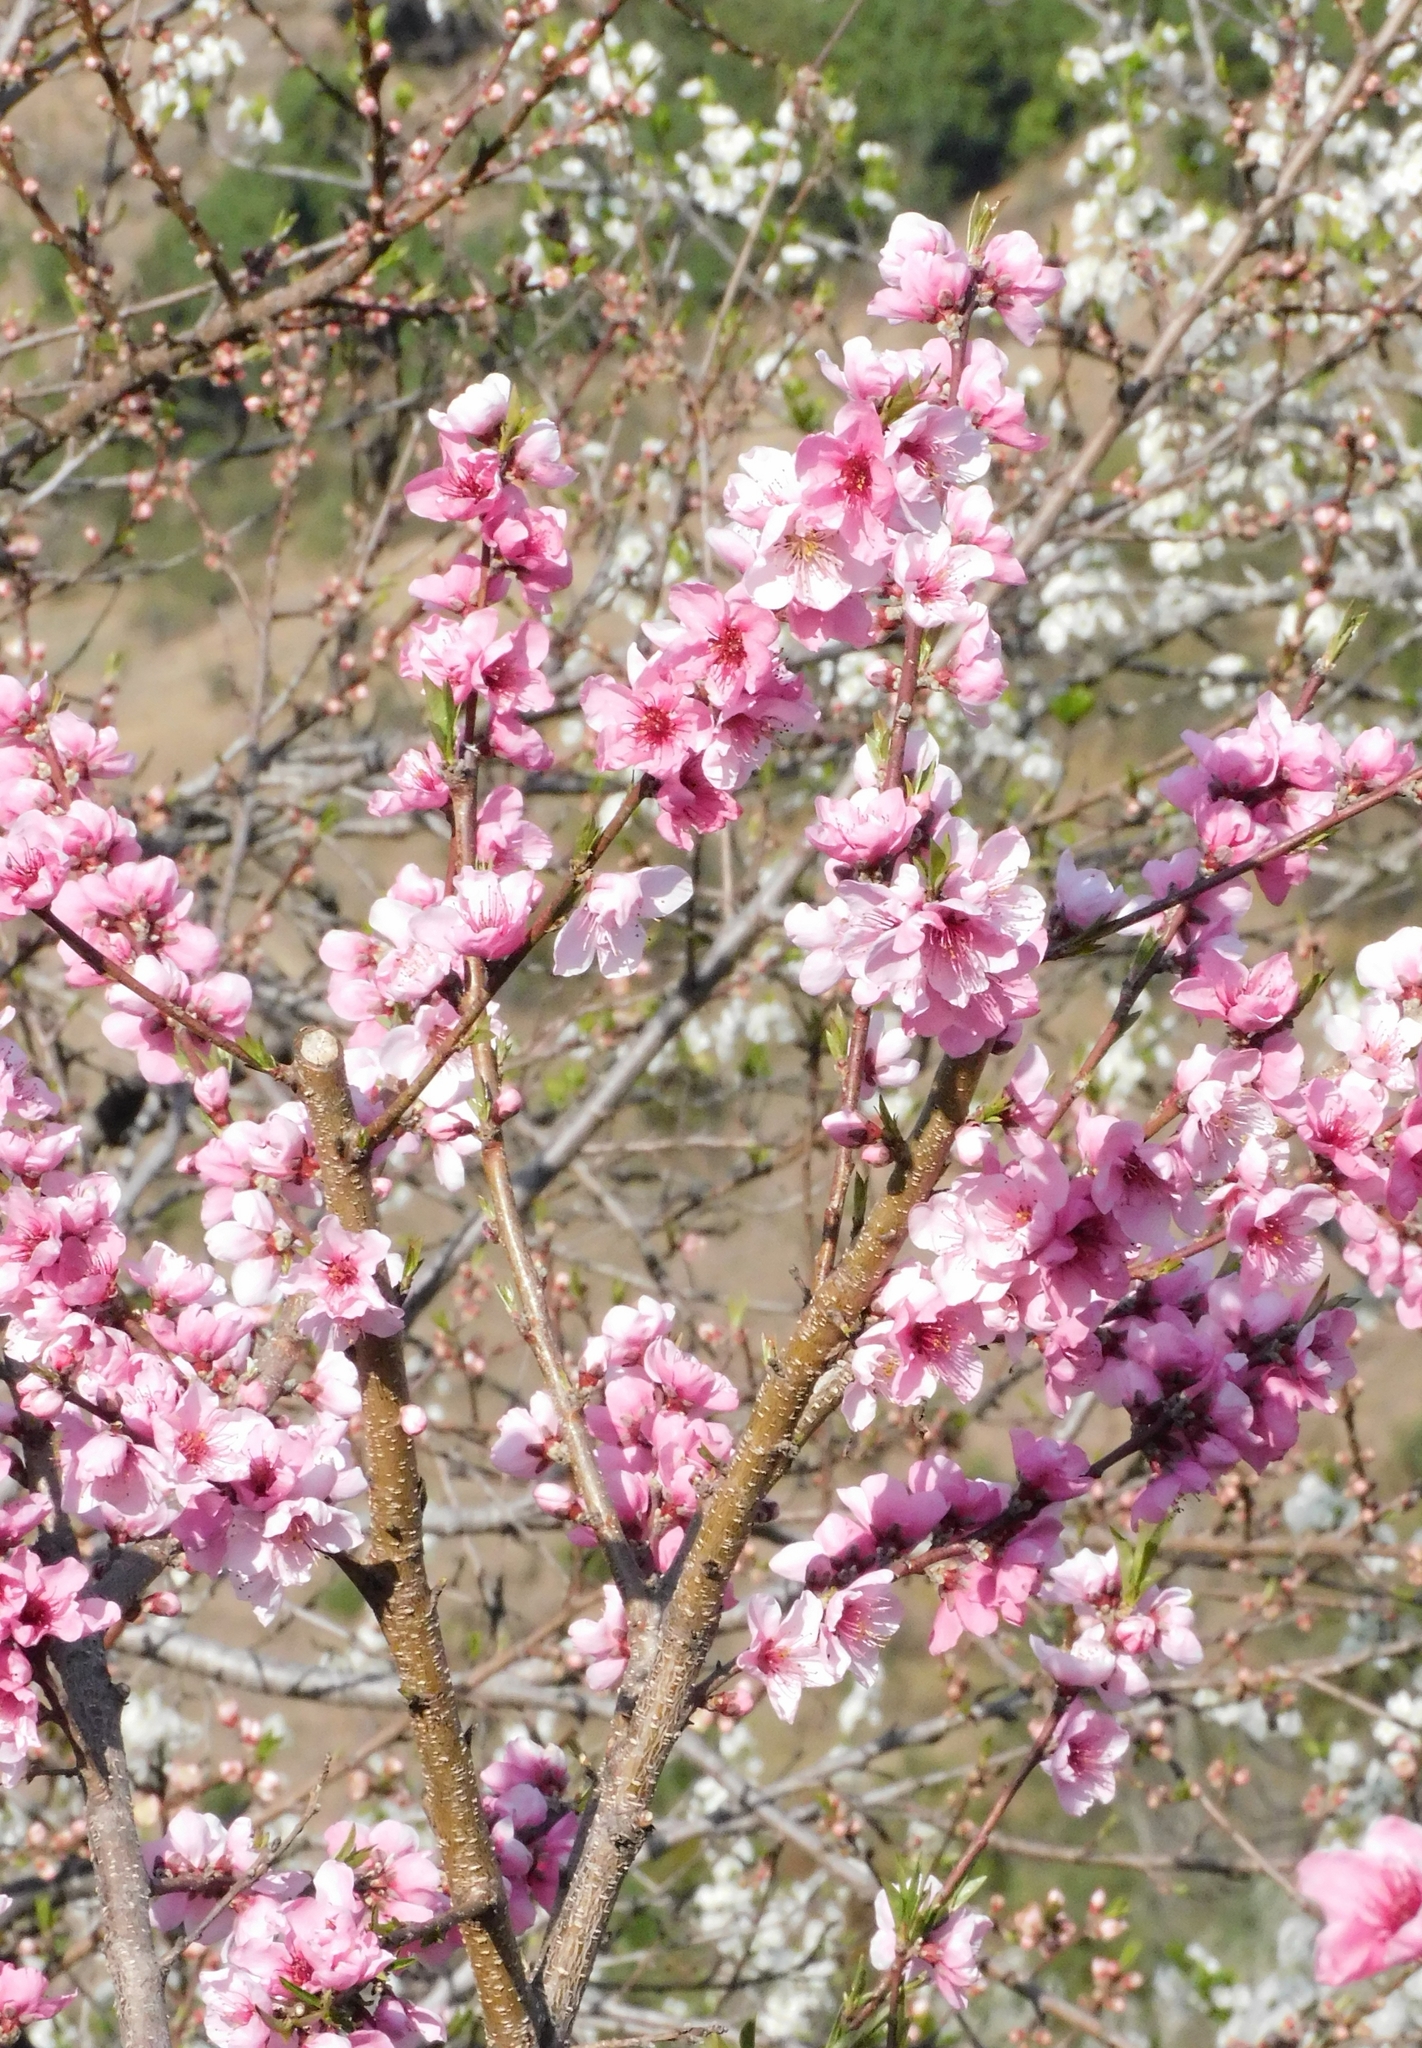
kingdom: Plantae
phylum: Tracheophyta
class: Magnoliopsida
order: Rosales
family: Rosaceae
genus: Prunus
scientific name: Prunus persica
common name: Peach
